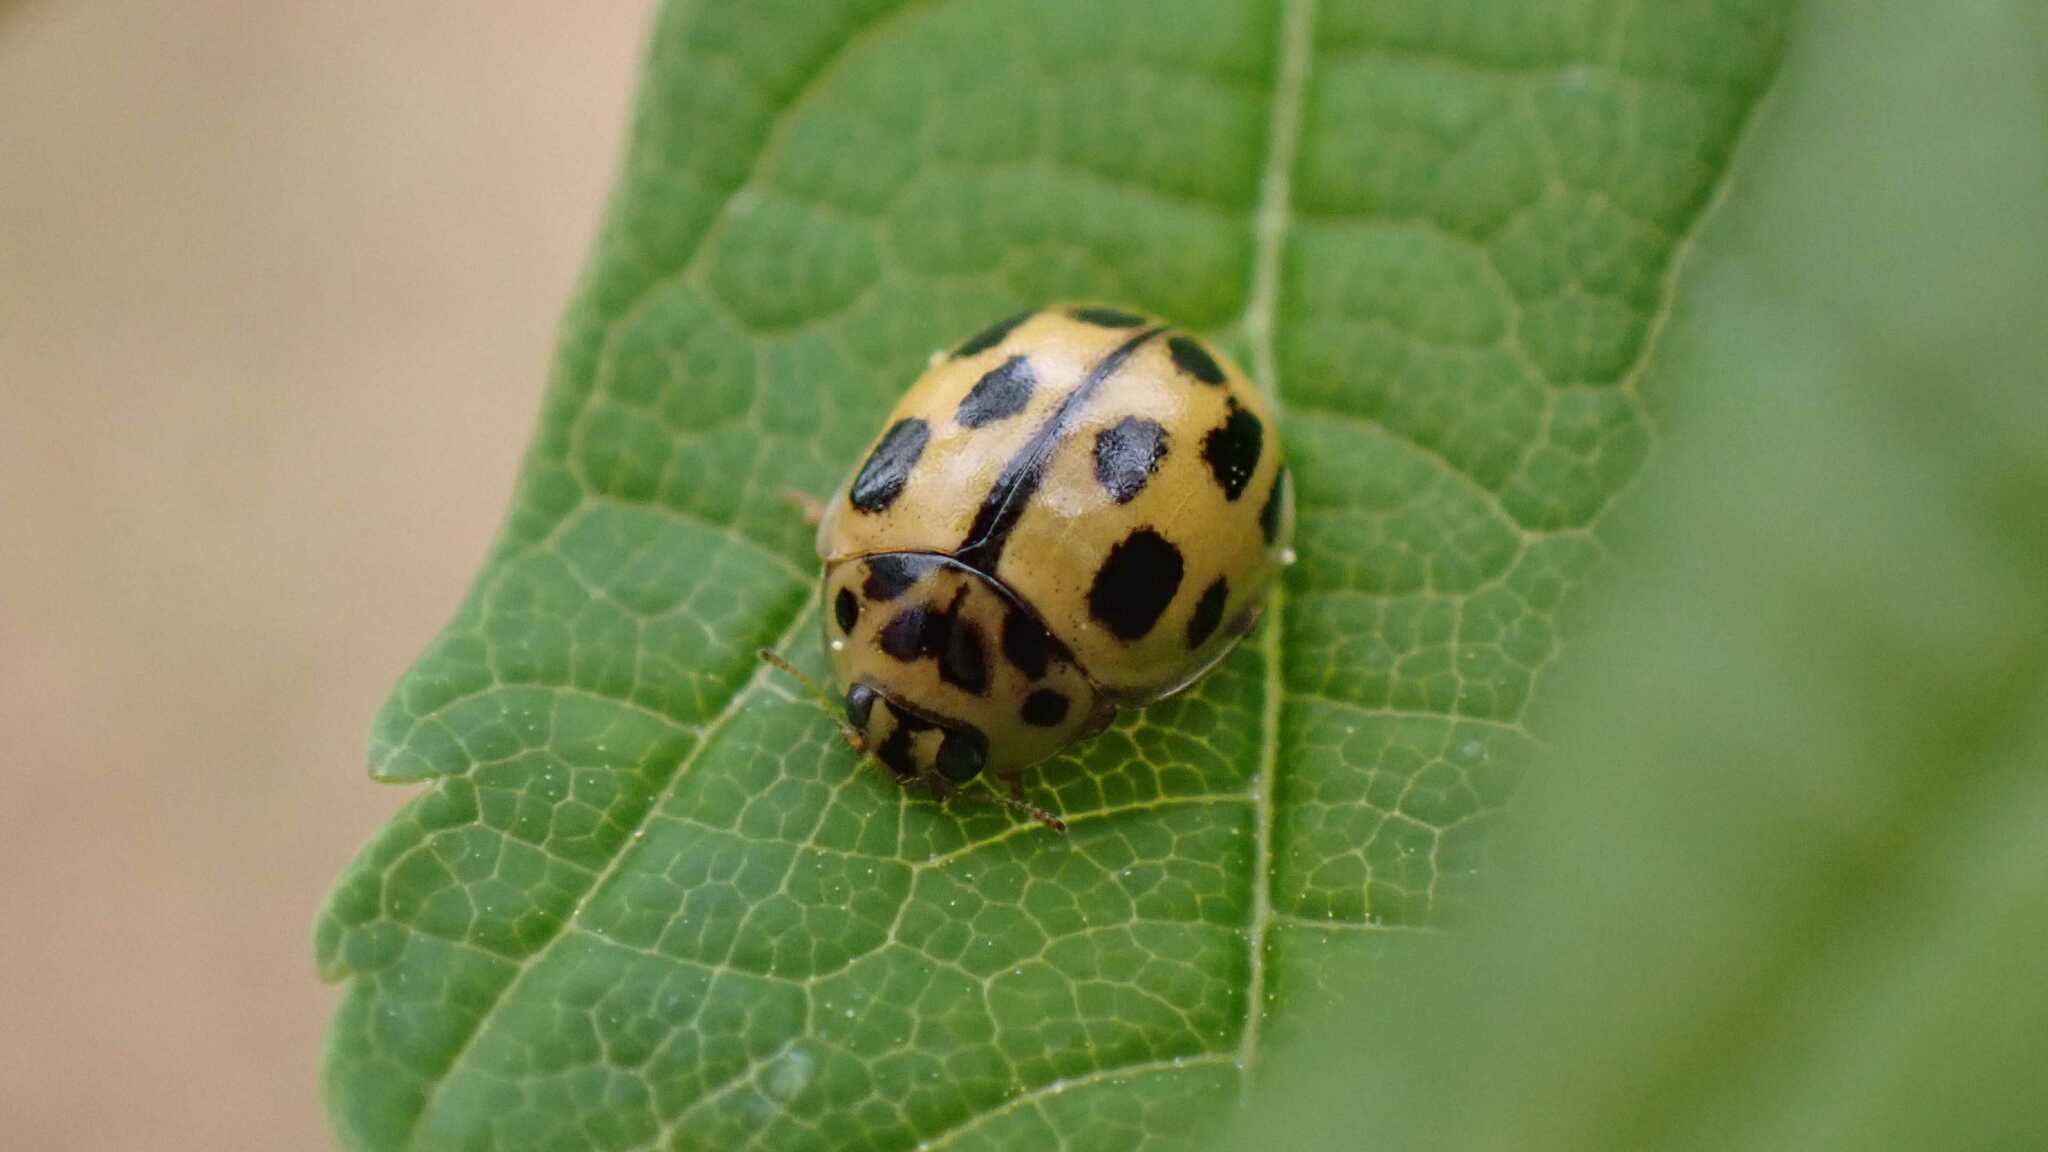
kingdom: Animalia
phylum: Arthropoda
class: Insecta
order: Coleoptera
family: Coccinellidae
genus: Propylaea
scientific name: Propylaea quatuordecimpunctata
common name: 14-spotted ladybird beetle
